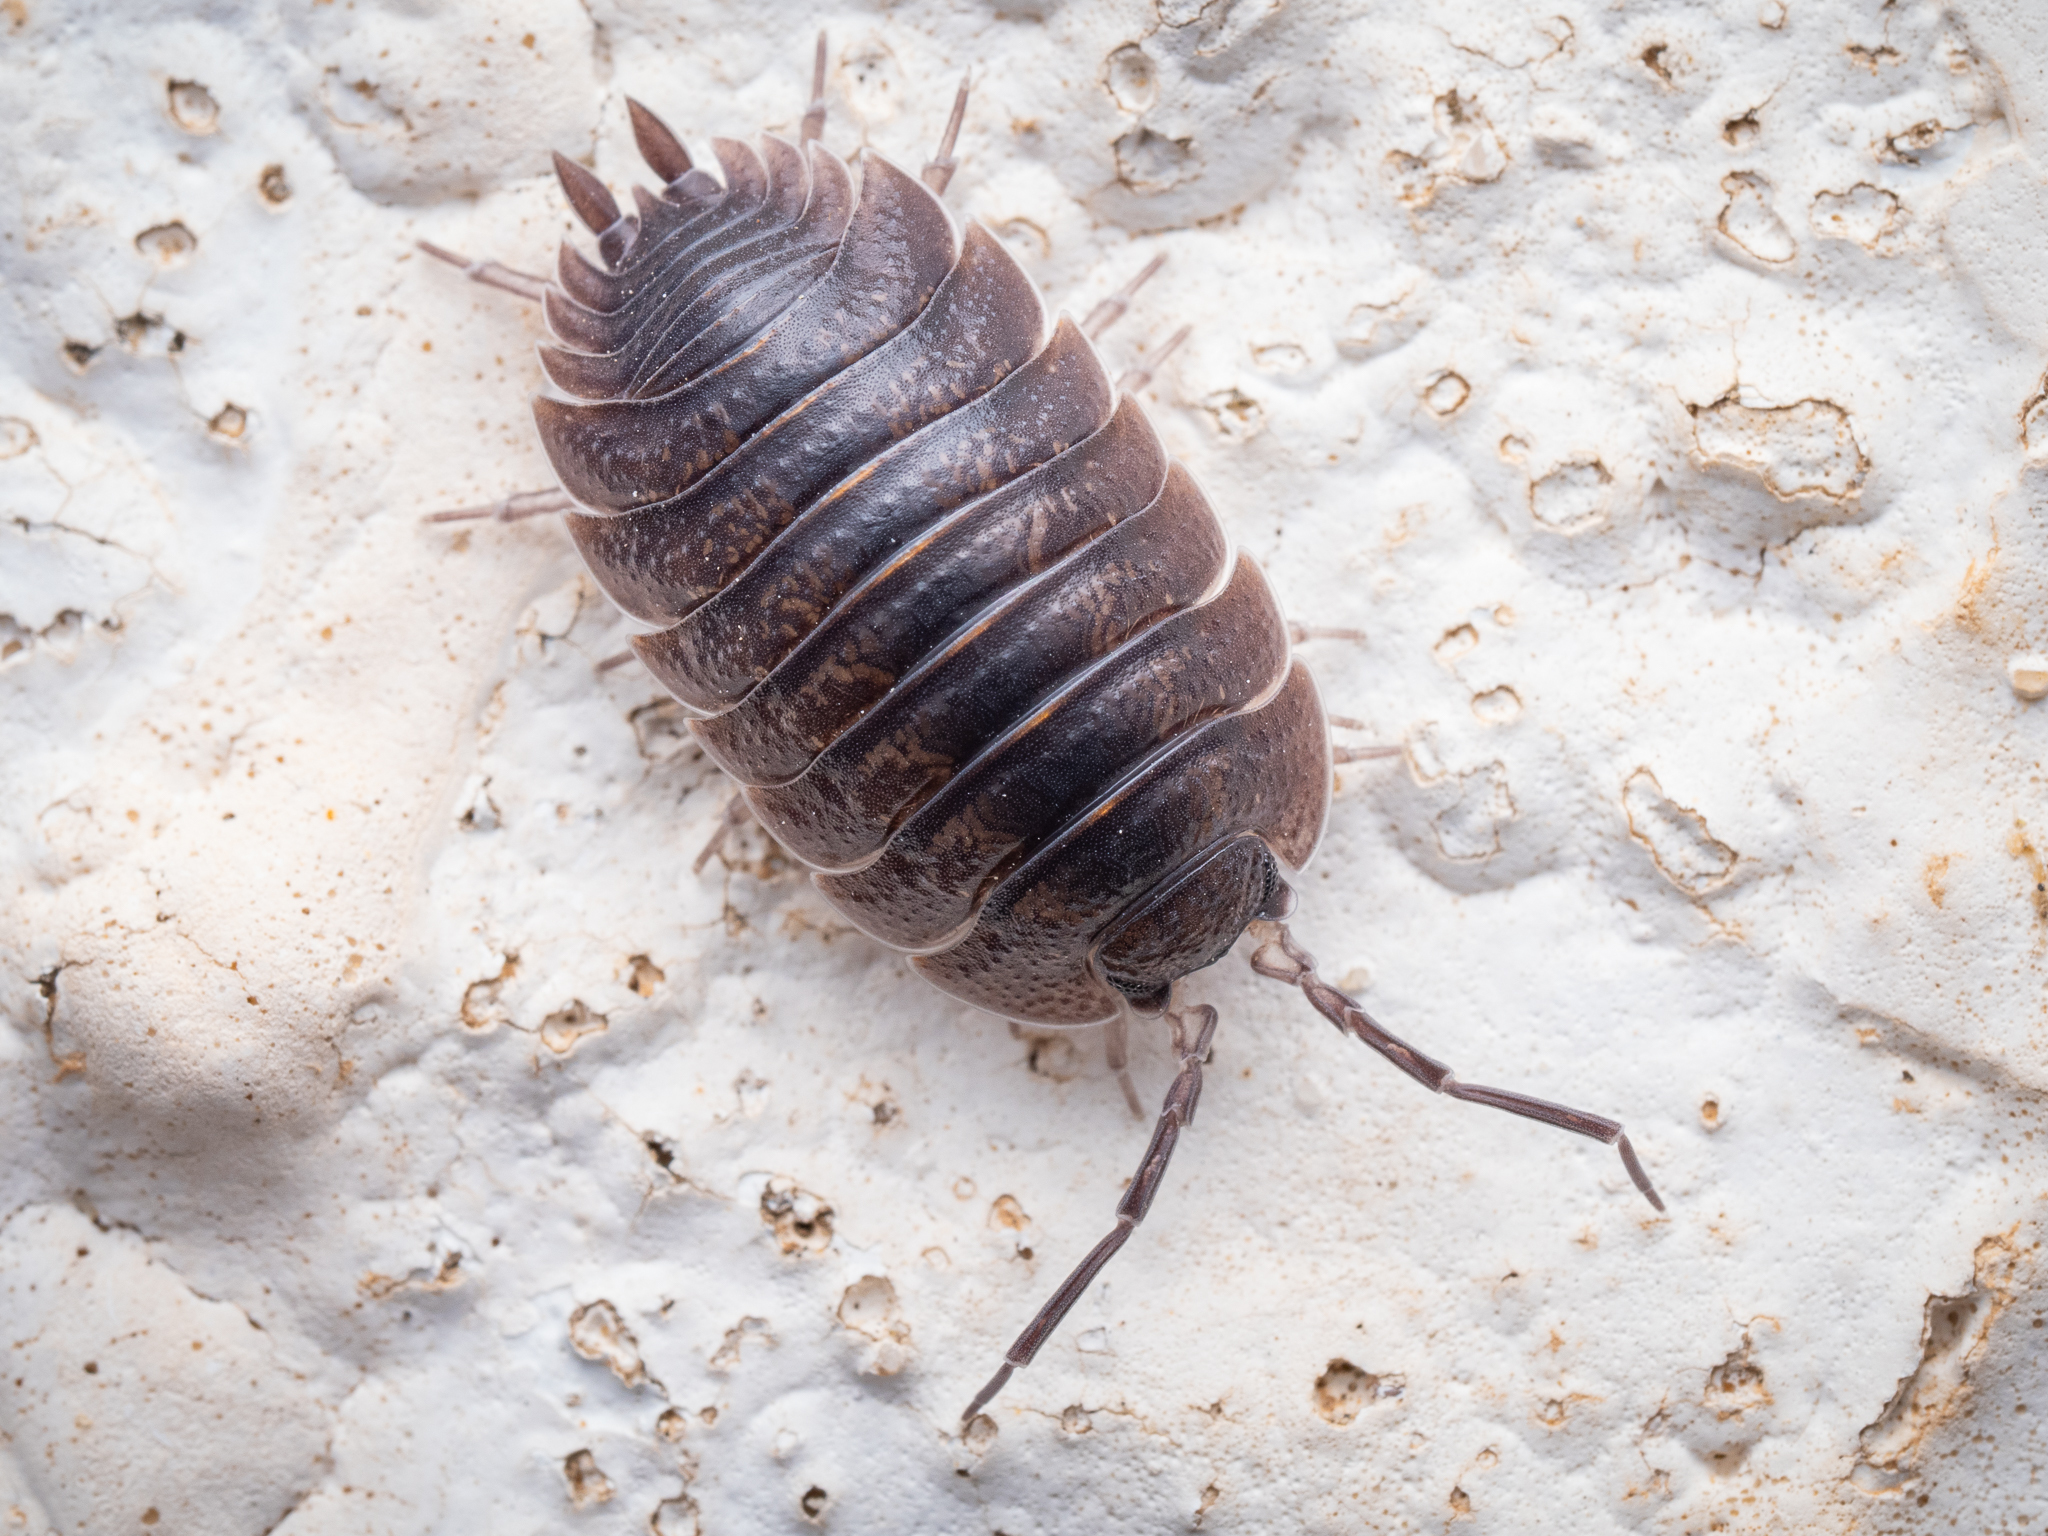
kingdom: Animalia
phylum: Arthropoda
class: Malacostraca
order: Isopoda
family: Porcellionidae
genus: Porcellio
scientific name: Porcellio obsoletus
